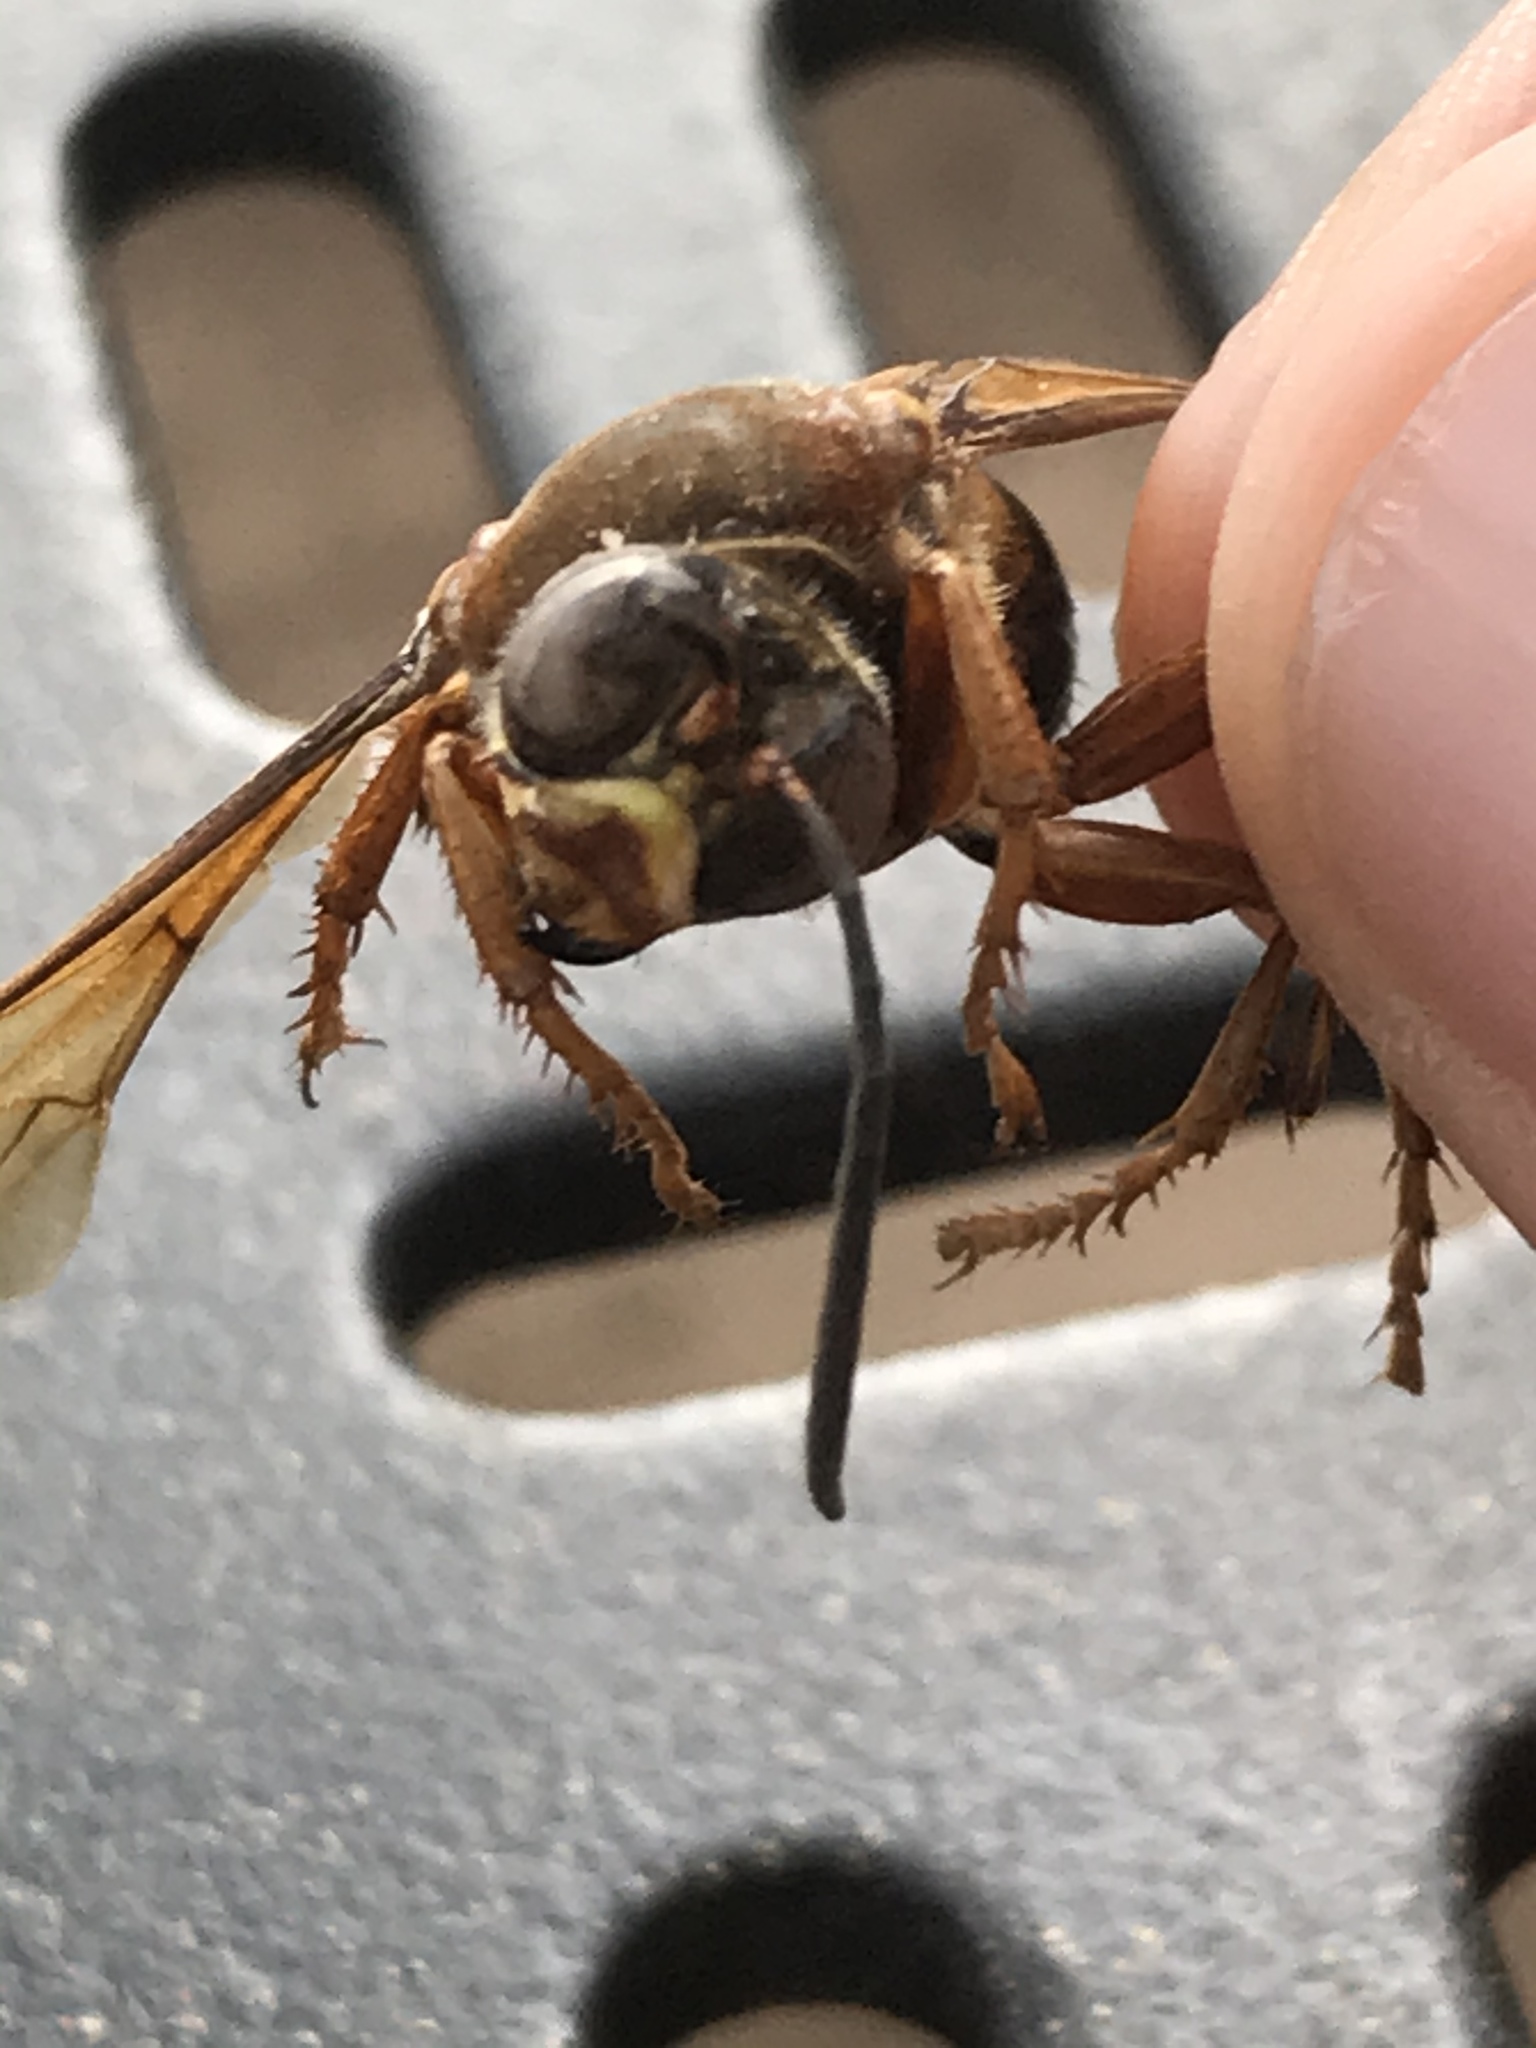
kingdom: Animalia
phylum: Arthropoda
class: Insecta
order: Hymenoptera
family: Crabronidae
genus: Sphecius
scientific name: Sphecius speciosus
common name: Cicada killer
